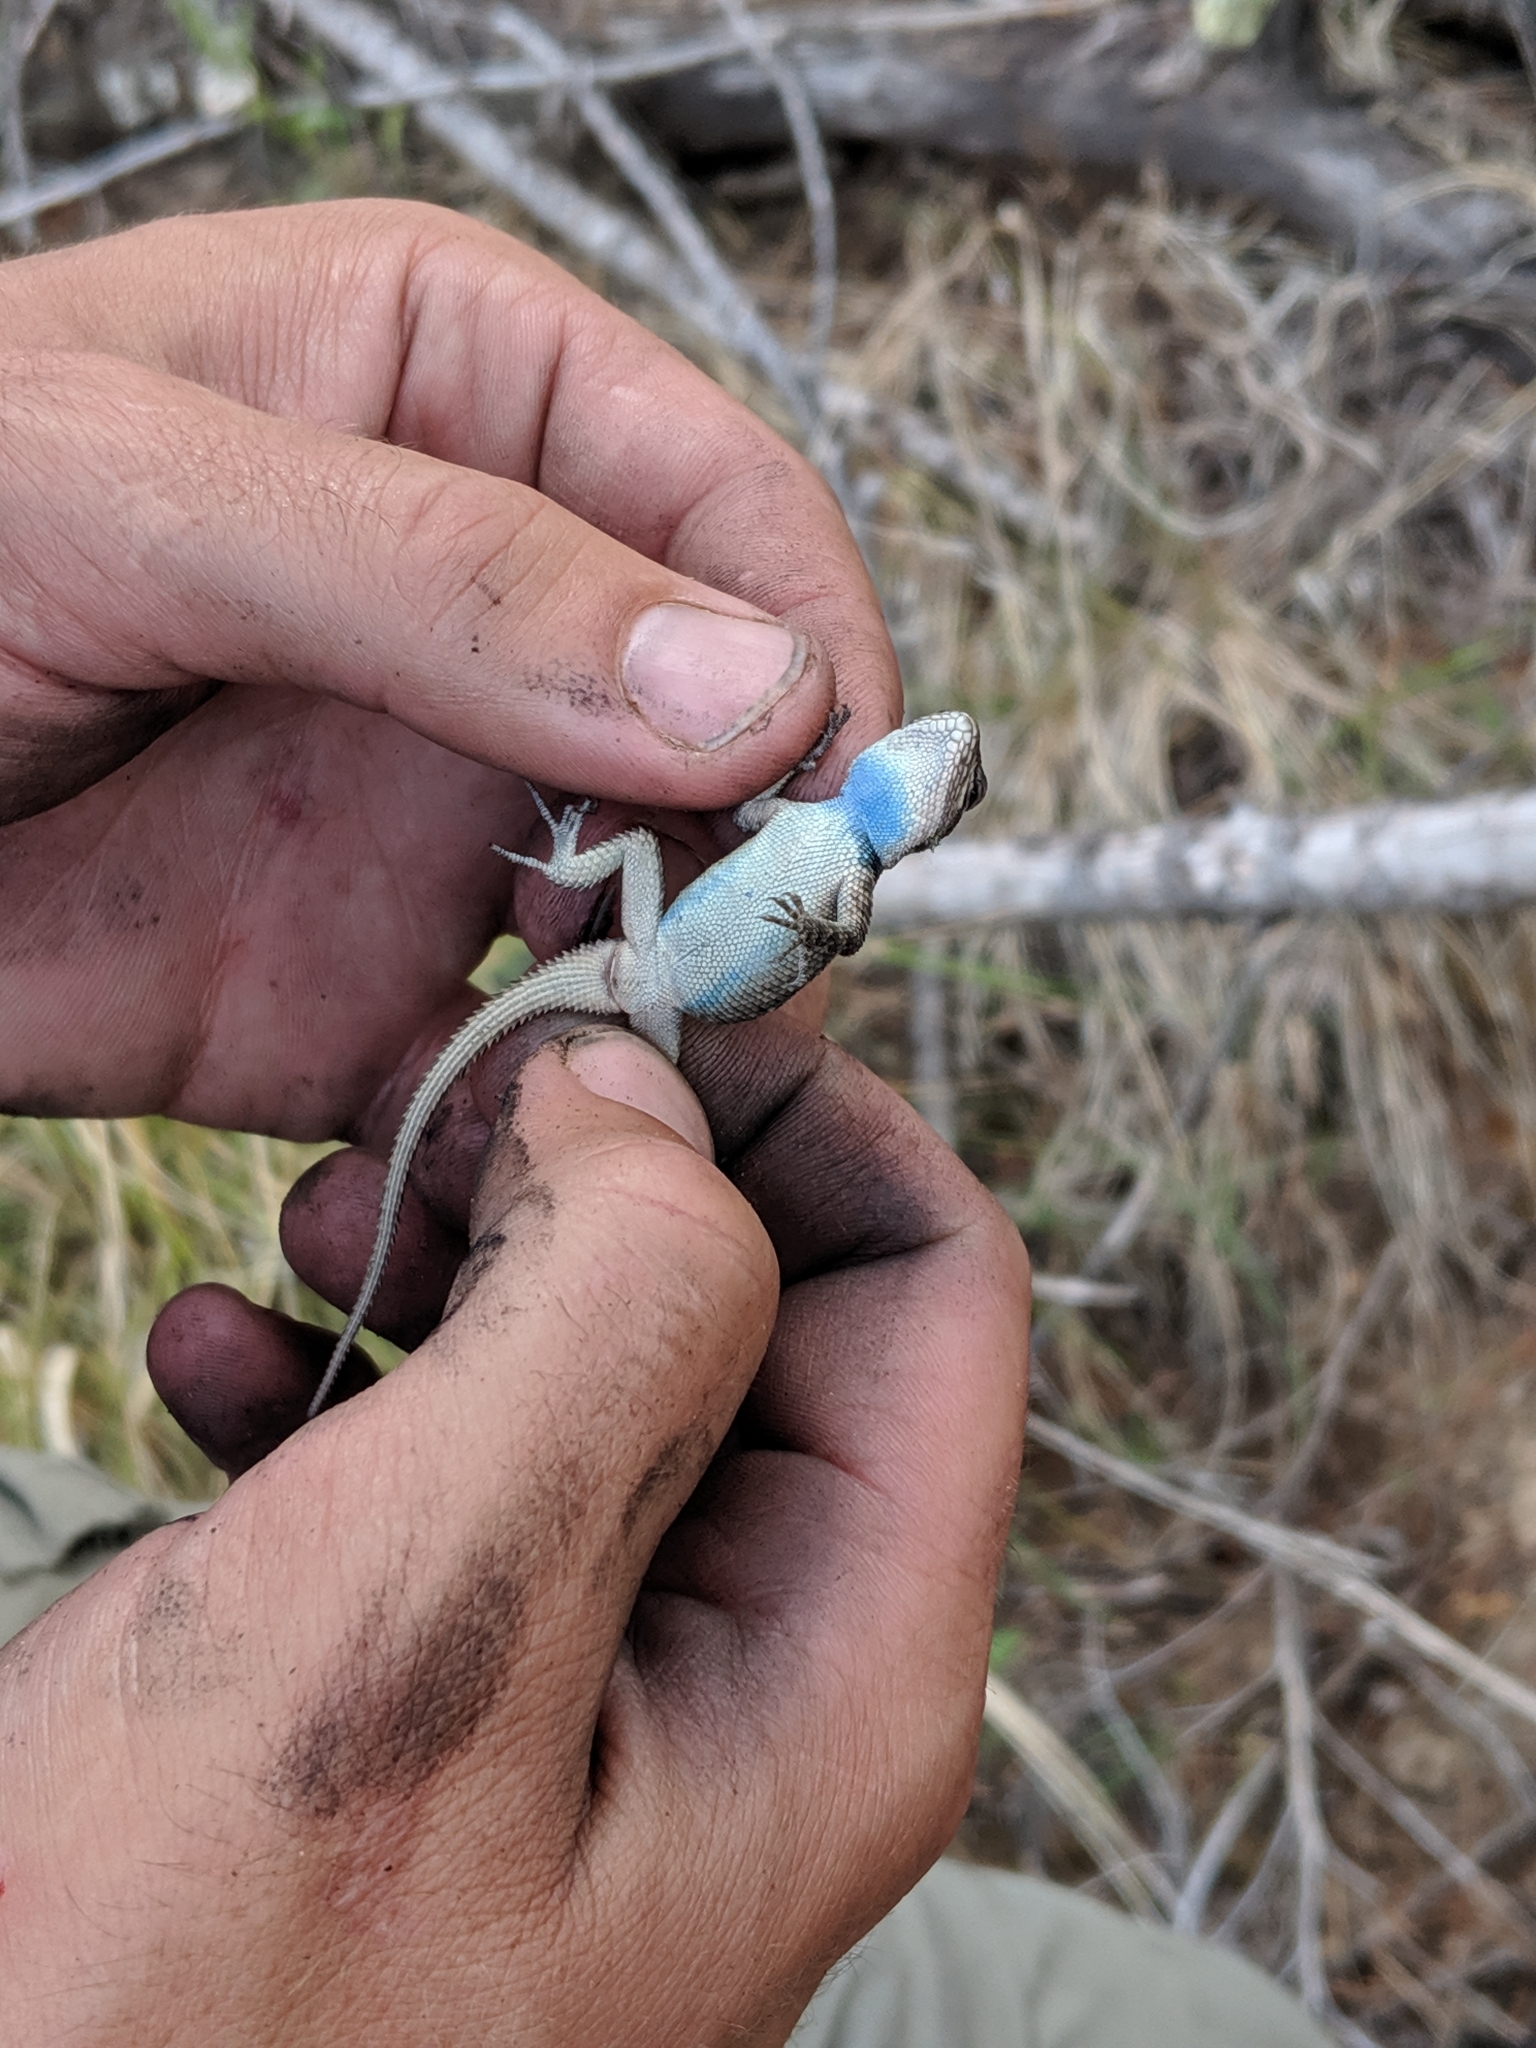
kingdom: Animalia
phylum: Chordata
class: Squamata
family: Phrynosomatidae
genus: Sceloporus
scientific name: Sceloporus jarrovii
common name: Yarrow's spiny lizard
